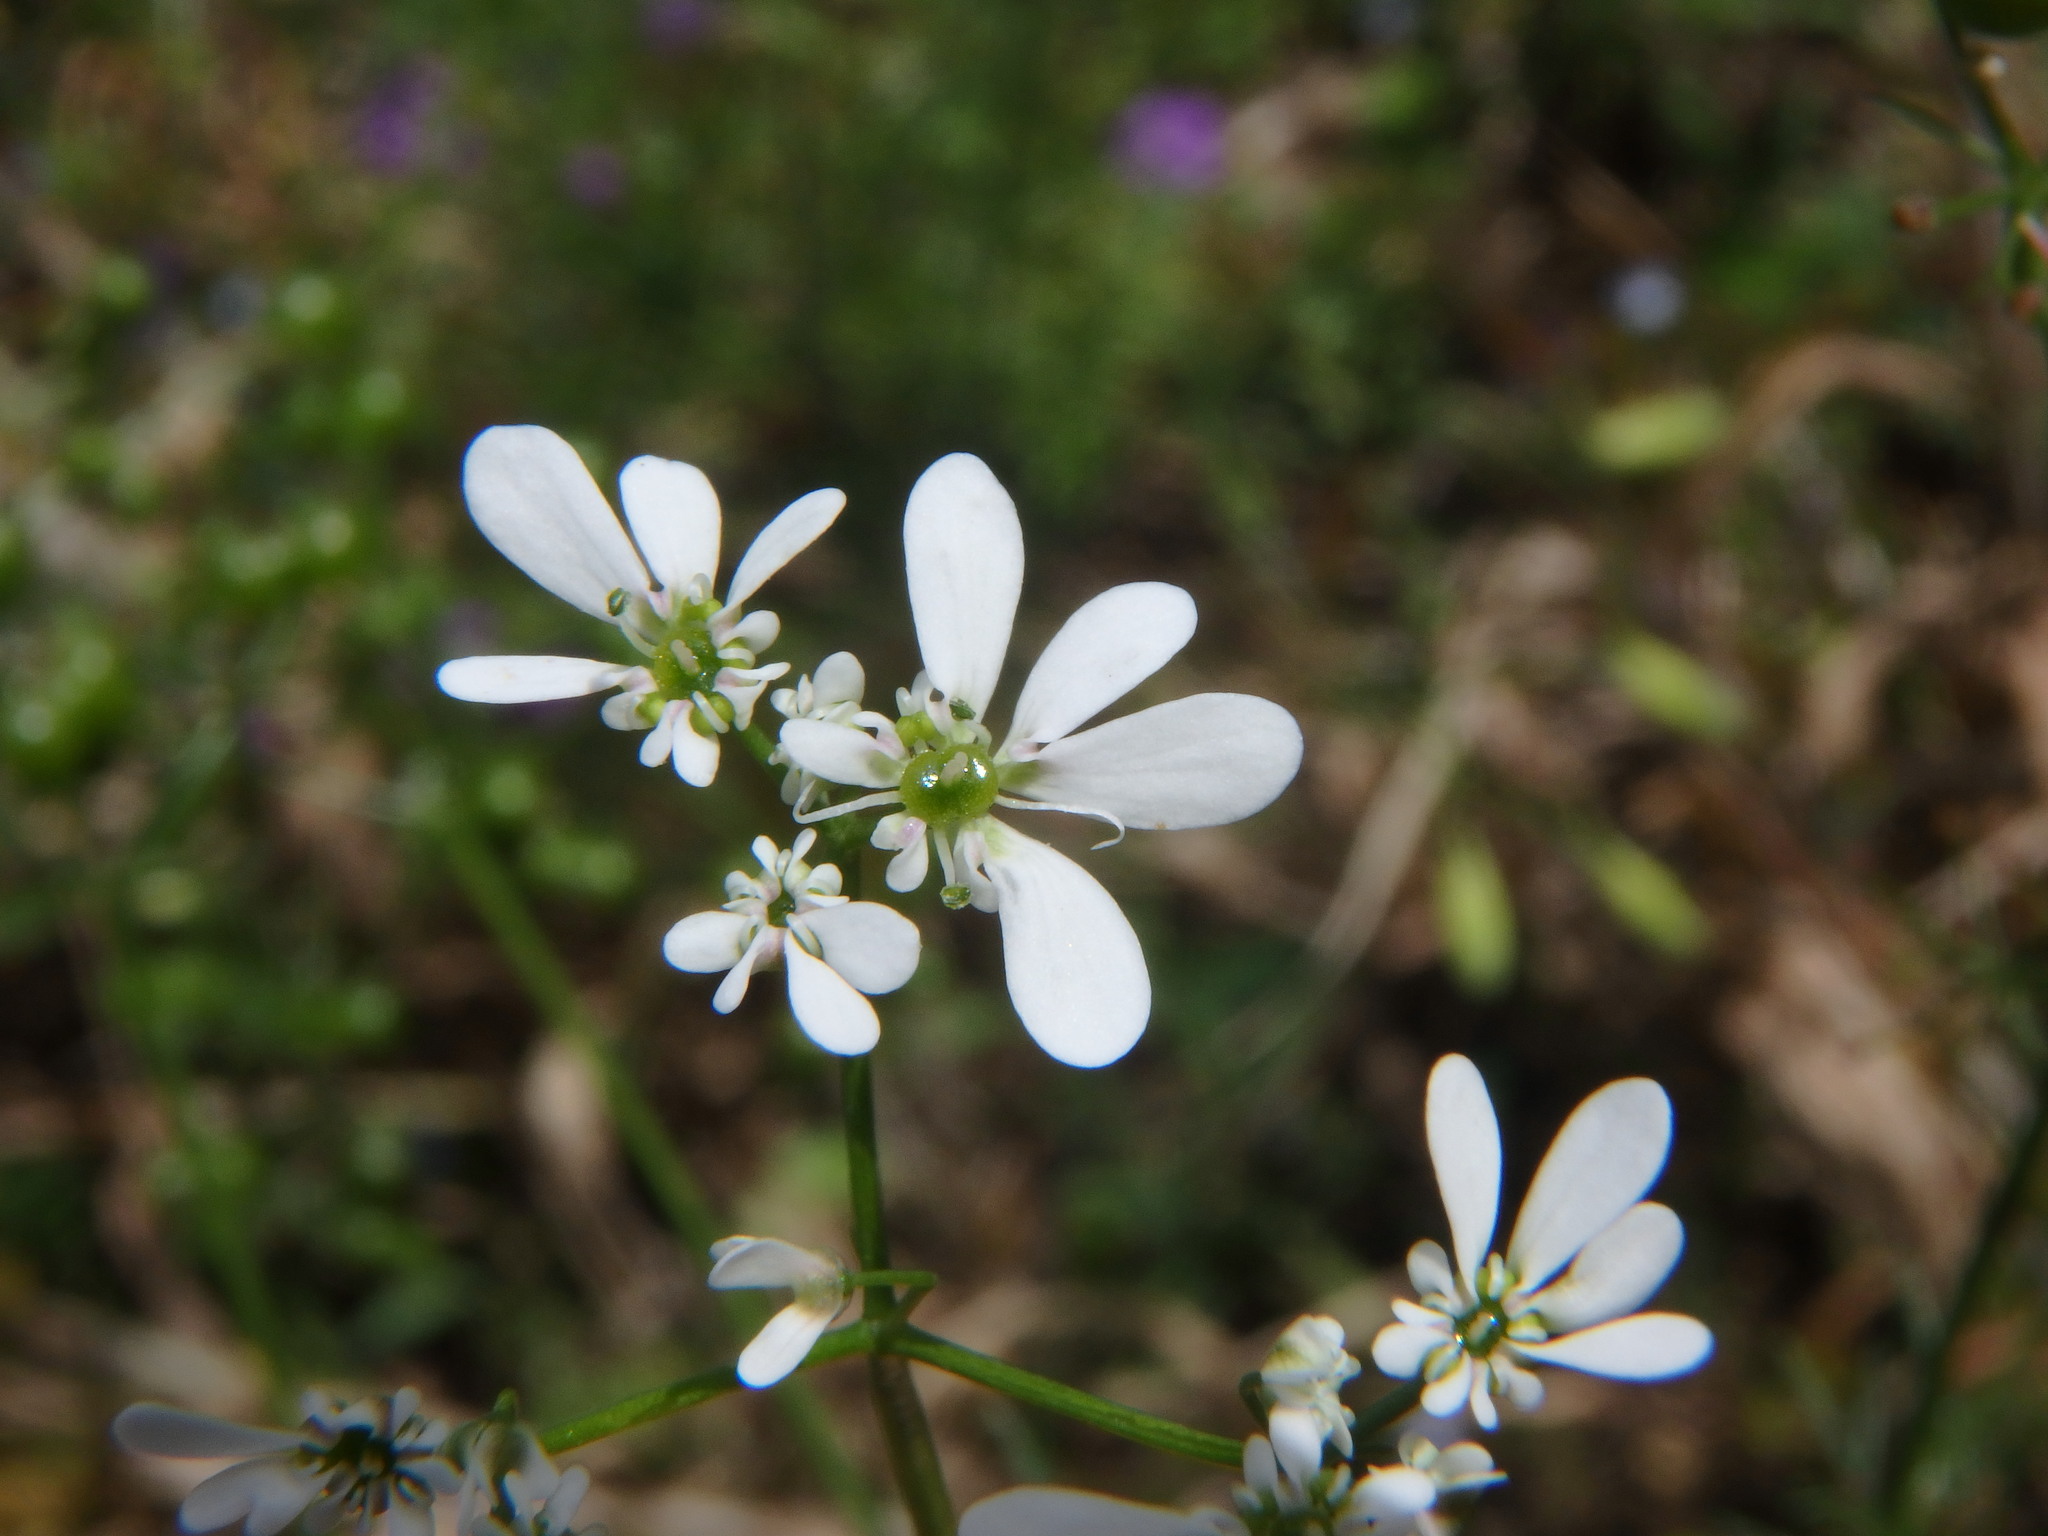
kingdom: Plantae
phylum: Tracheophyta
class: Magnoliopsida
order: Apiales
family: Apiaceae
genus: Bifora
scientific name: Bifora radians
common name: Wild bishop
